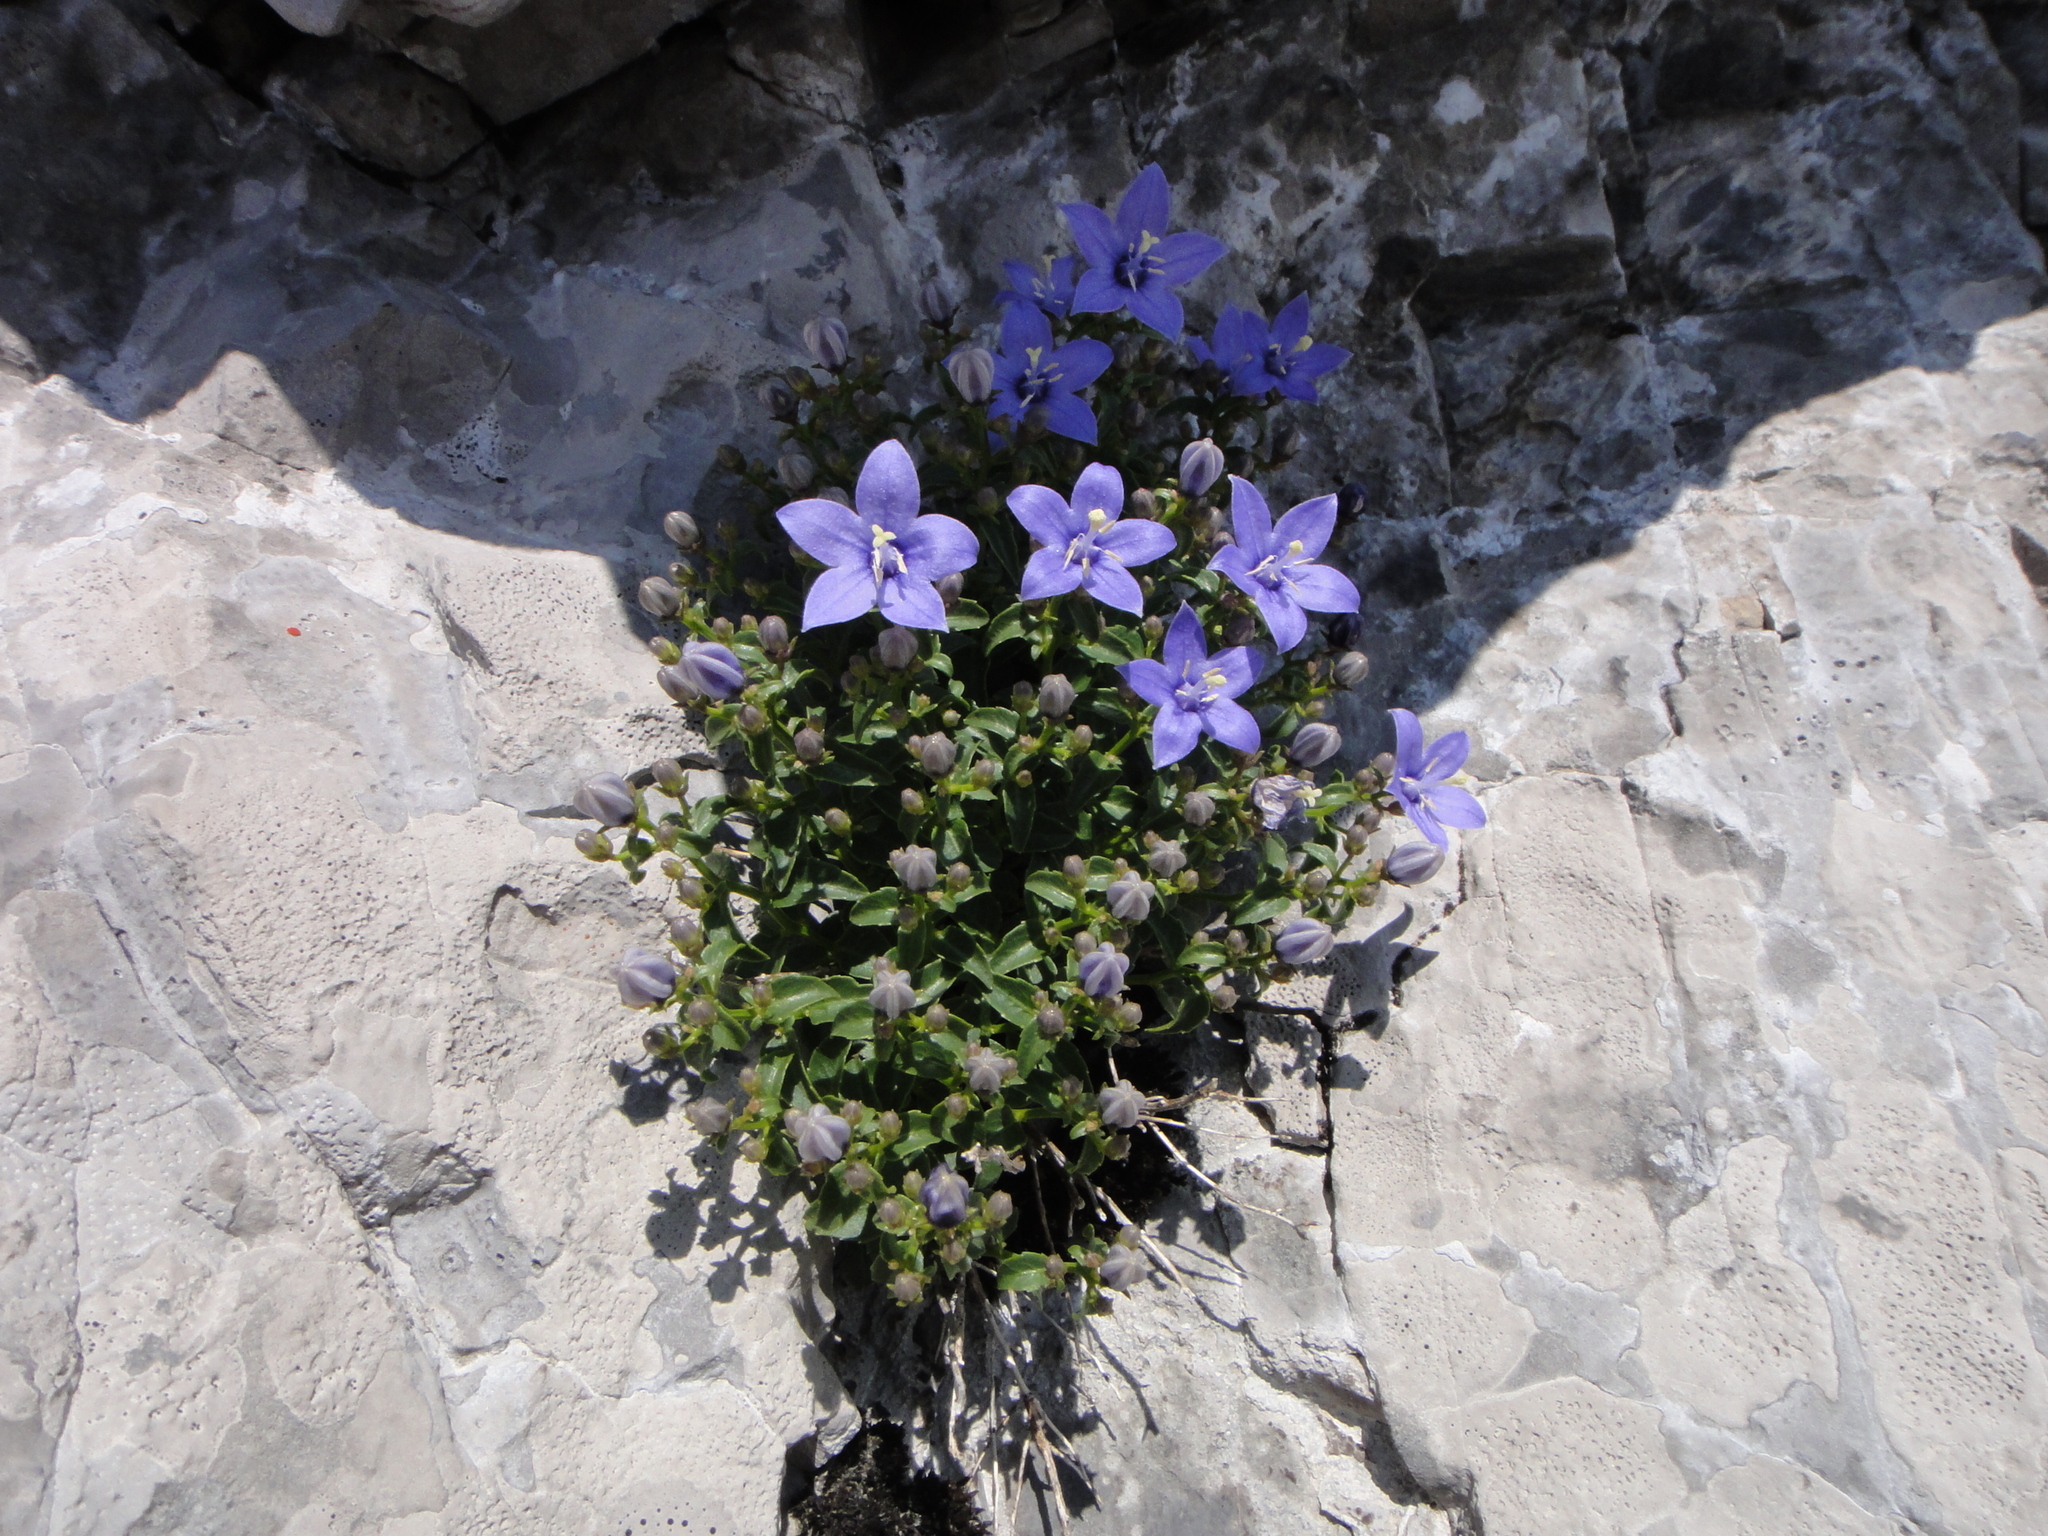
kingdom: Plantae
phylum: Tracheophyta
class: Magnoliopsida
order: Asterales
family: Campanulaceae
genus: Campanula
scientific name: Campanula waldsteiniana
